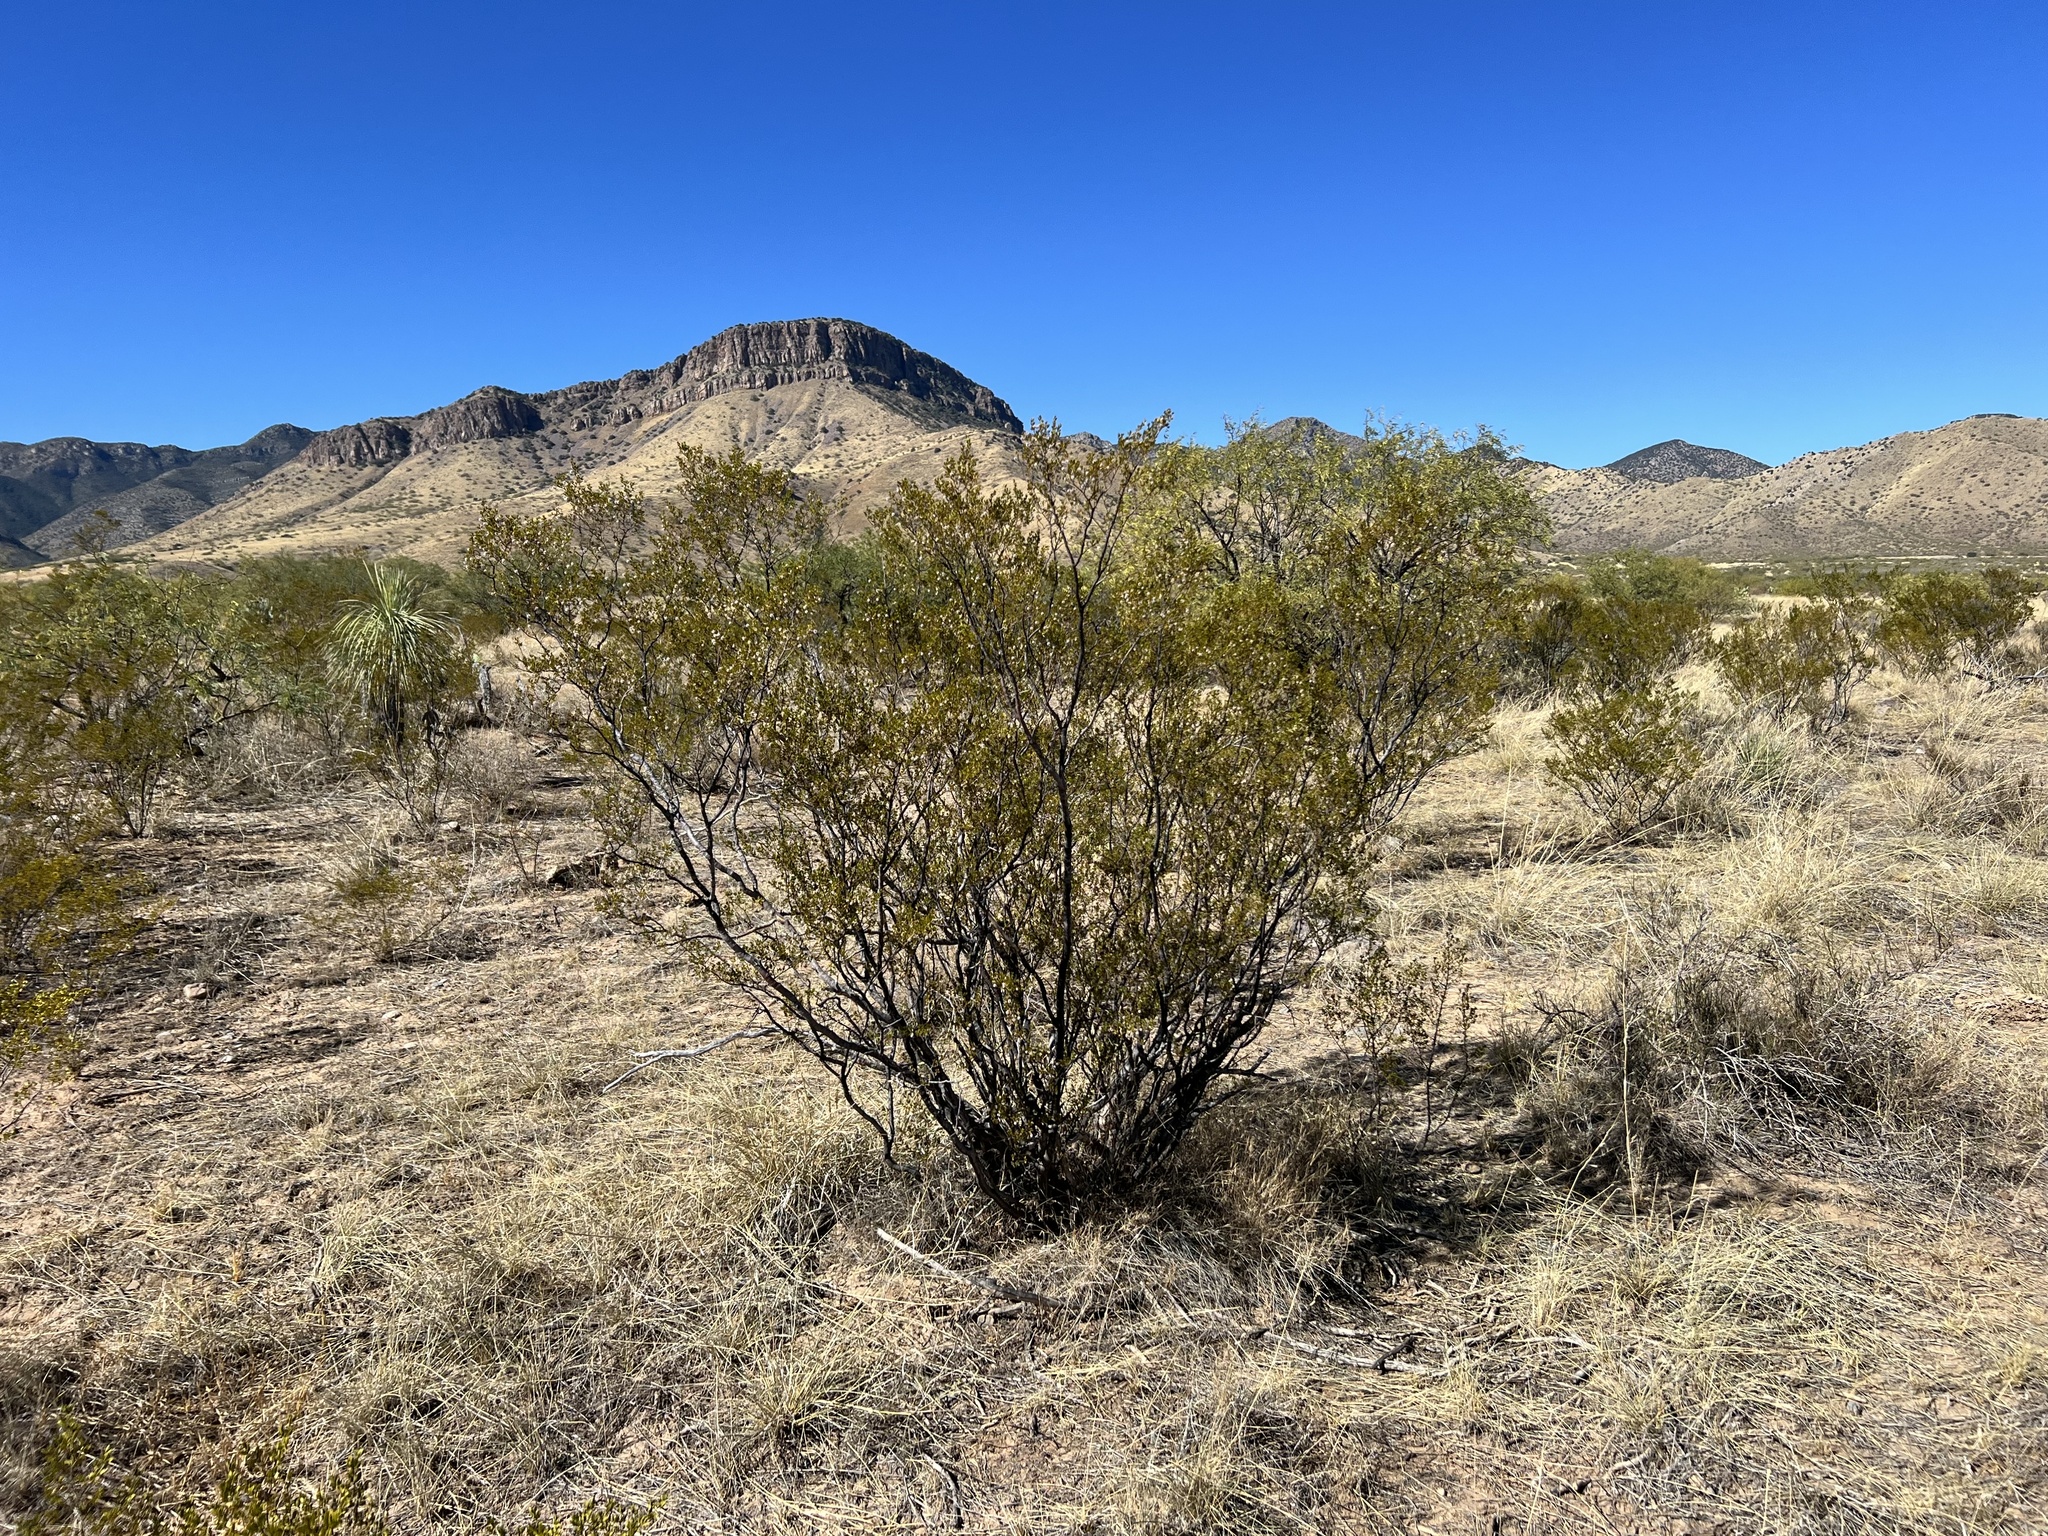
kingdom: Plantae
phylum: Tracheophyta
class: Magnoliopsida
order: Zygophyllales
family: Zygophyllaceae
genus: Larrea
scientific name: Larrea tridentata
